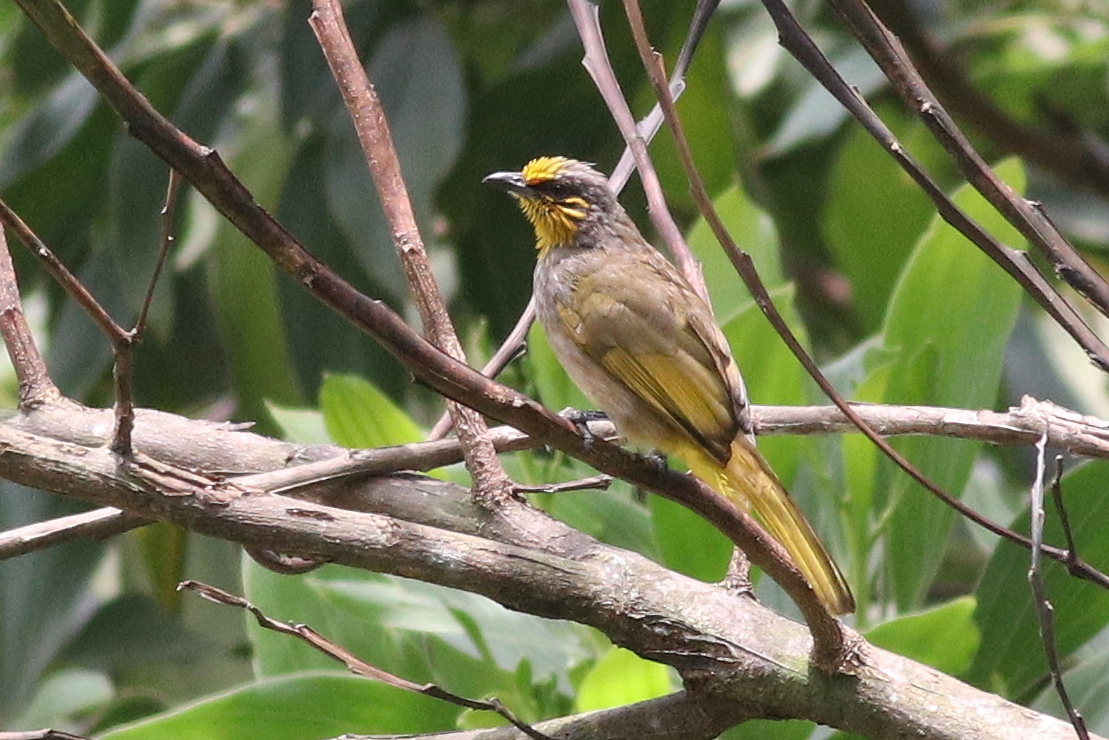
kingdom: Animalia
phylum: Chordata
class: Aves
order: Passeriformes
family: Pycnonotidae
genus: Pycnonotus
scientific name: Pycnonotus finlaysoni
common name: Stripe-throated bulbul
